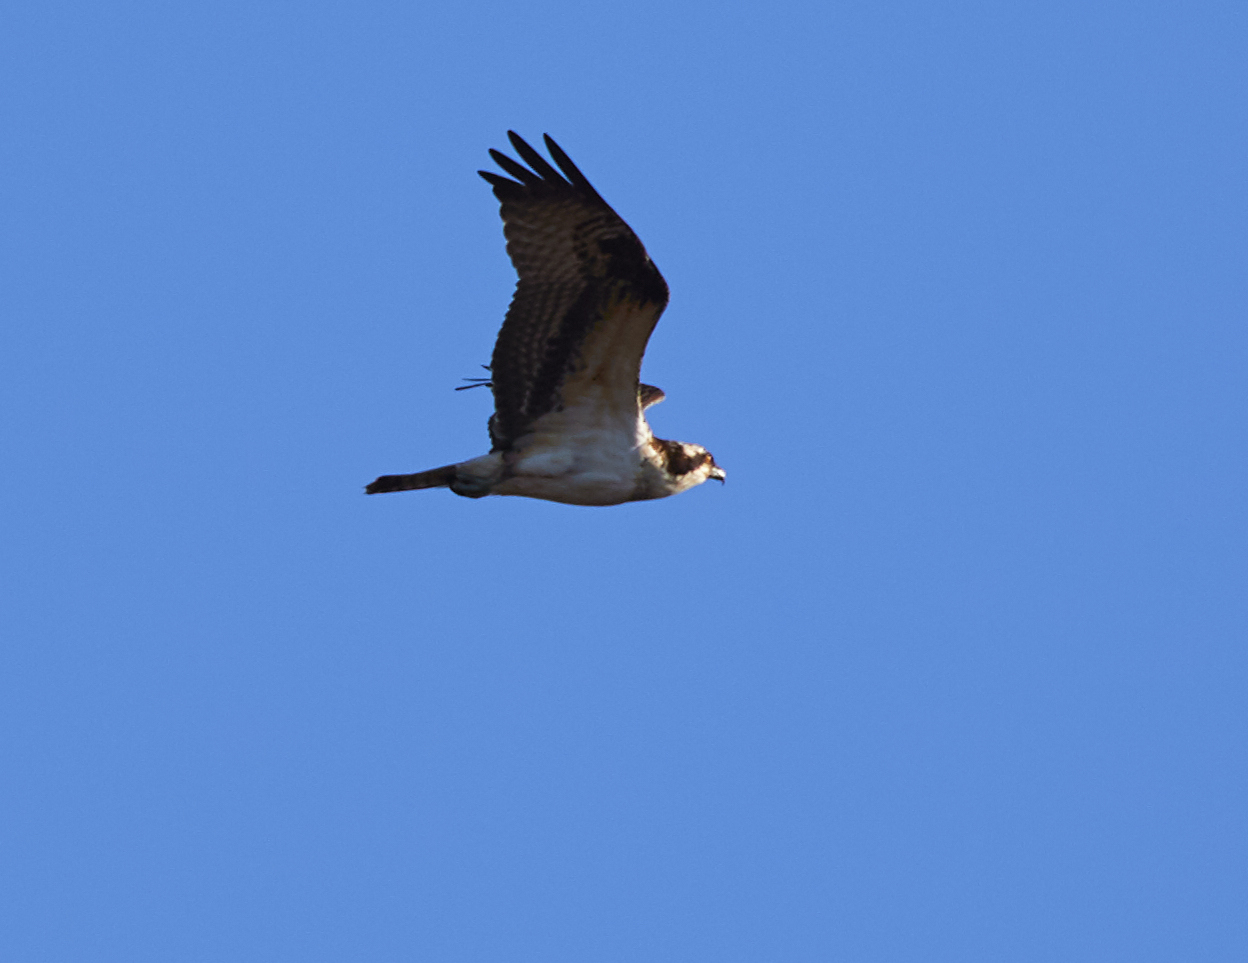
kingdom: Animalia
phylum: Chordata
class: Aves
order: Accipitriformes
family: Pandionidae
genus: Pandion
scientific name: Pandion haliaetus
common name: Osprey
